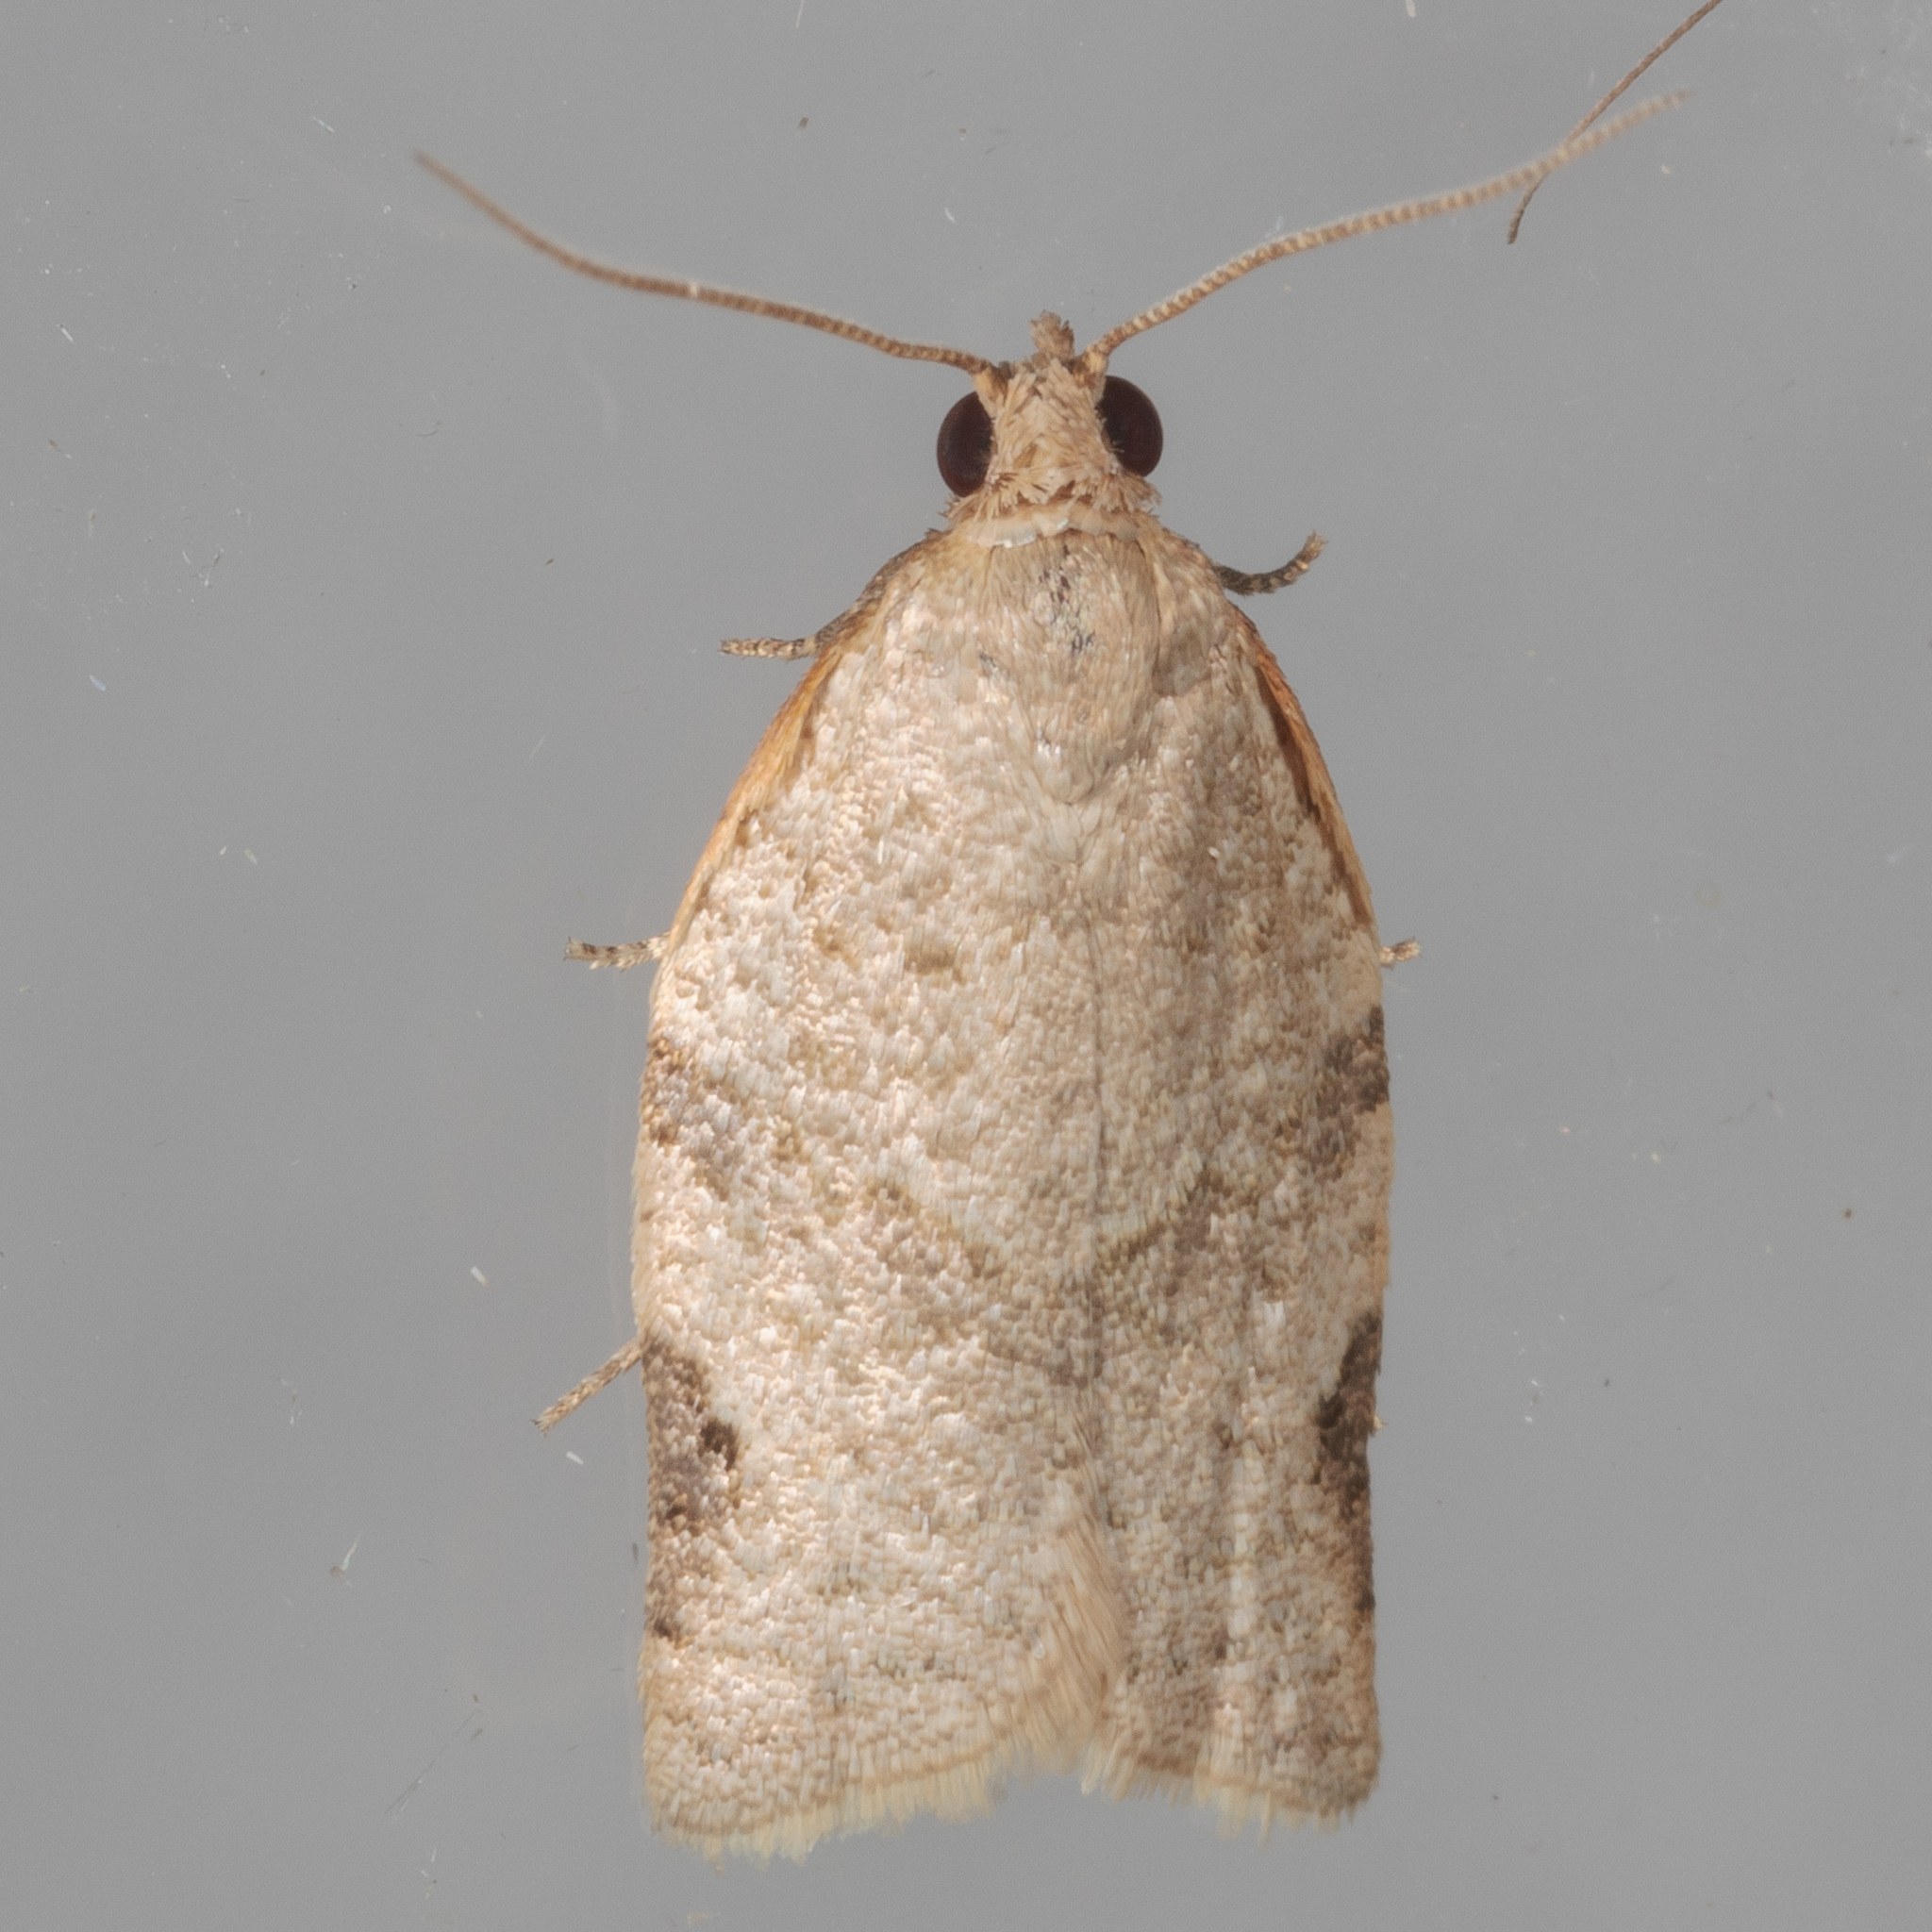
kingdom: Animalia
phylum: Arthropoda
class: Insecta
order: Lepidoptera
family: Tortricidae
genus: Clepsis
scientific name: Clepsis virescana
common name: Greenish apple moth
